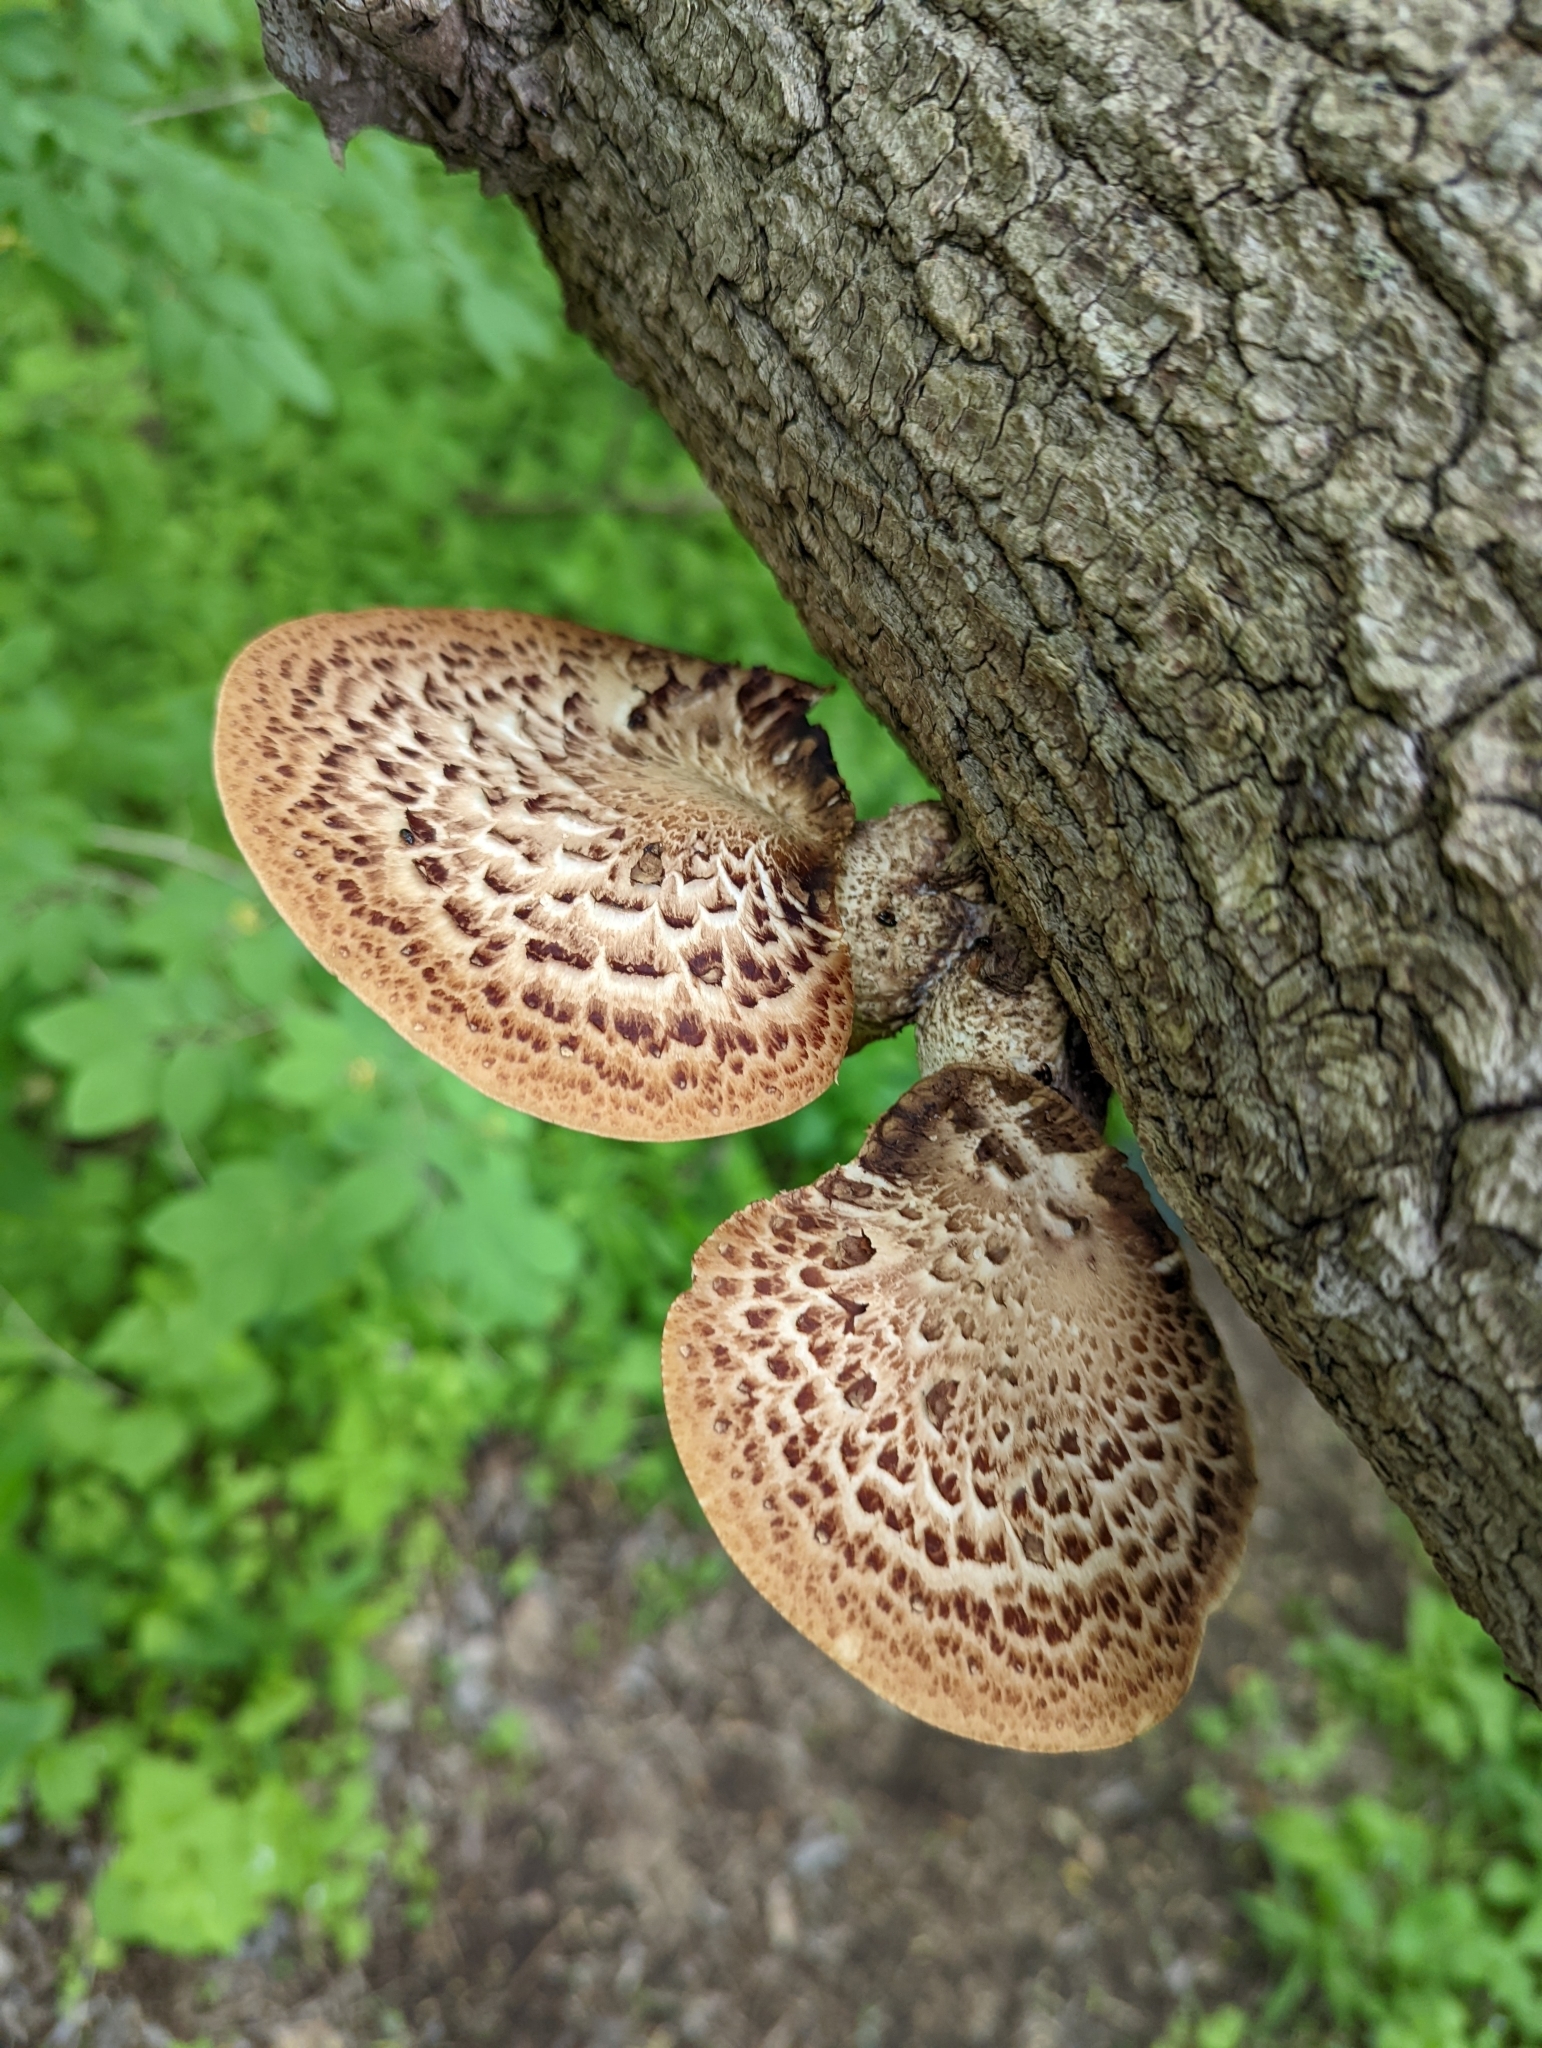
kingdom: Fungi
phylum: Basidiomycota
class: Agaricomycetes
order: Polyporales
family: Polyporaceae
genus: Cerioporus
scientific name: Cerioporus squamosus
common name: Dryad's saddle
